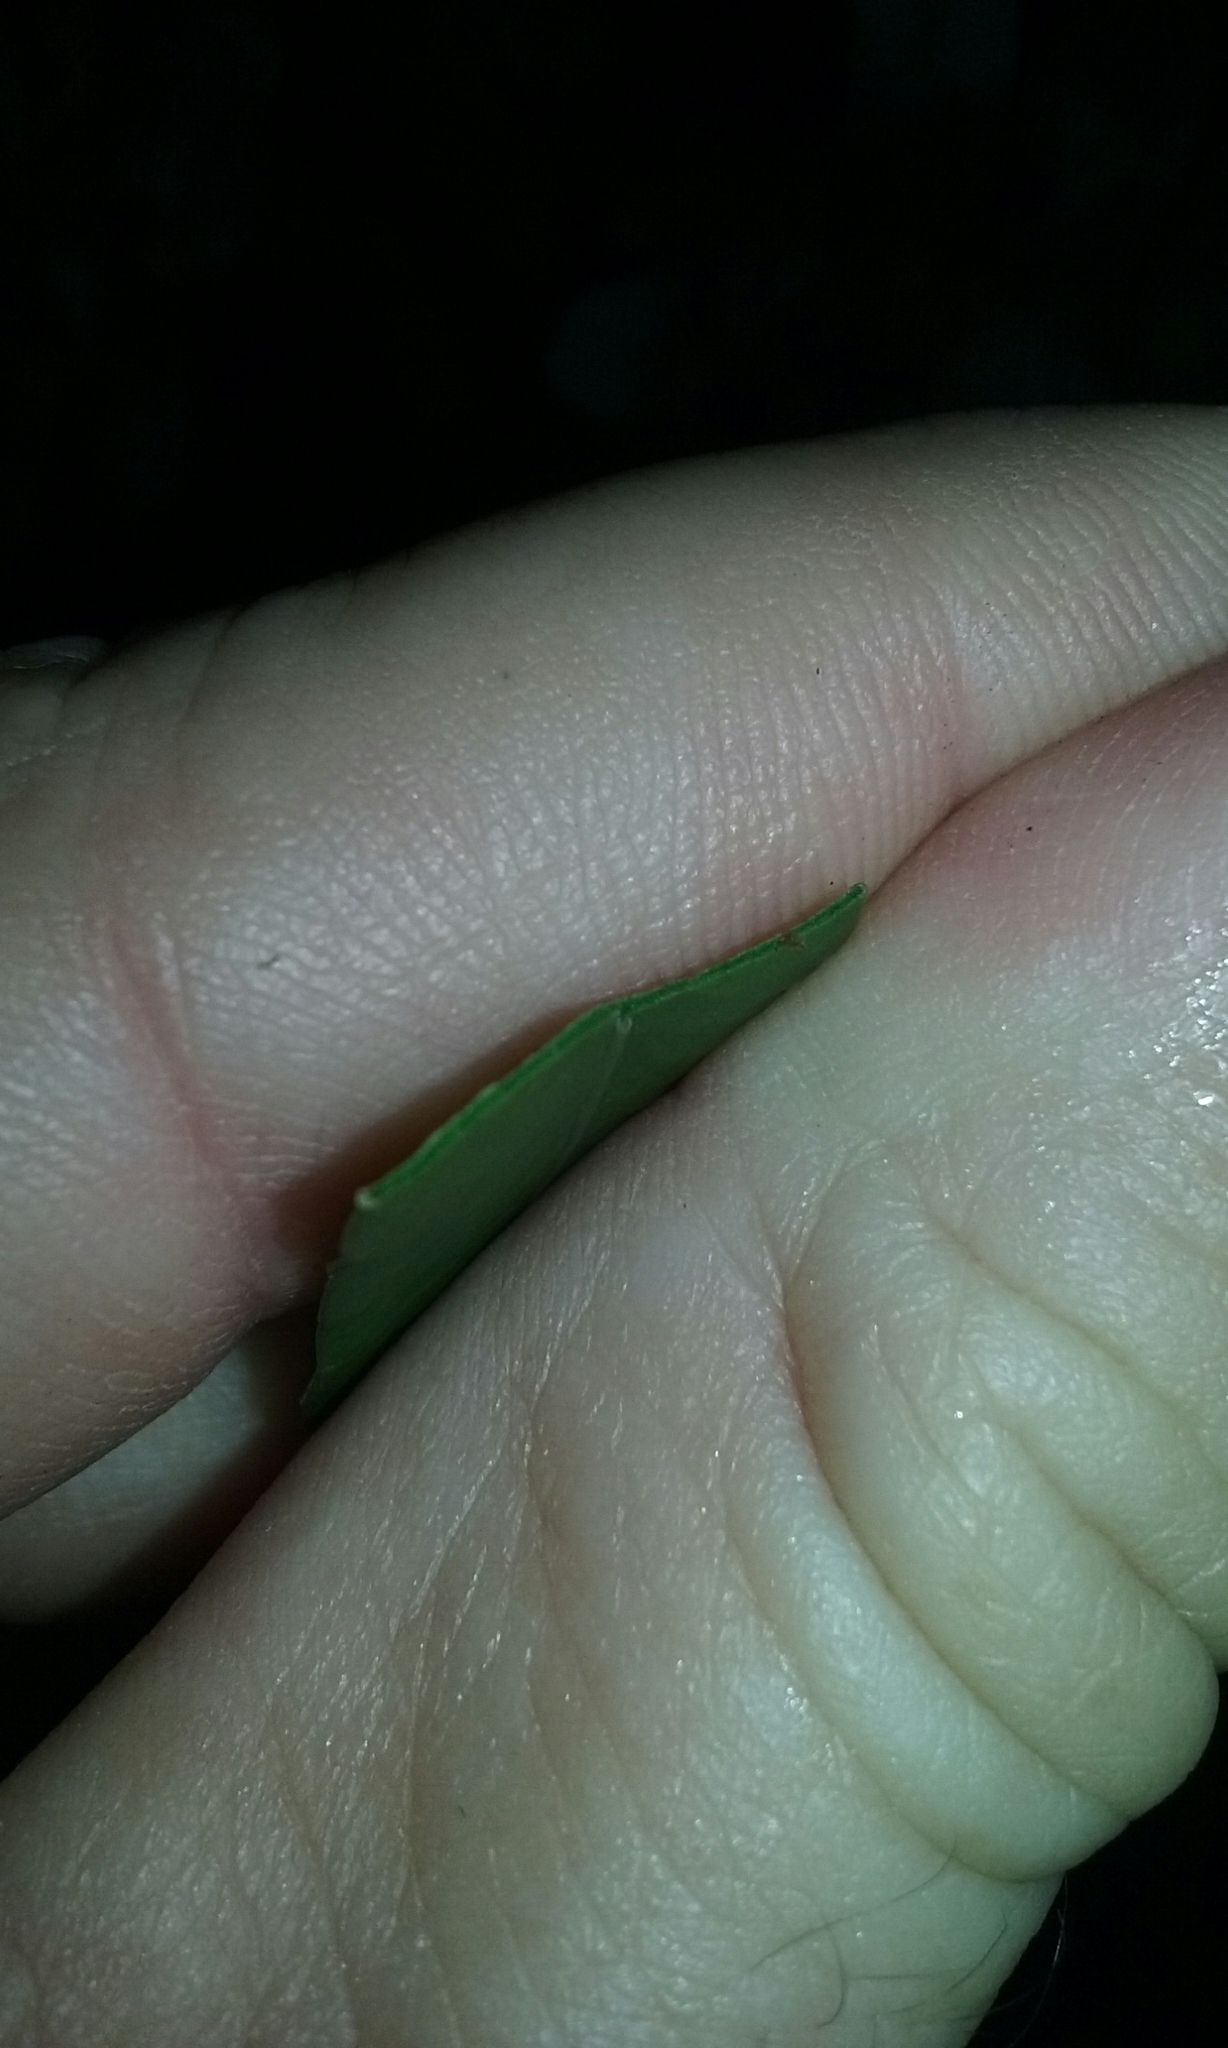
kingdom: Plantae
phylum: Tracheophyta
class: Polypodiopsida
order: Polypodiales
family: Polypodiaceae
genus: Polypodium
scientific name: Polypodium scouleri
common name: Scouler's polypody
